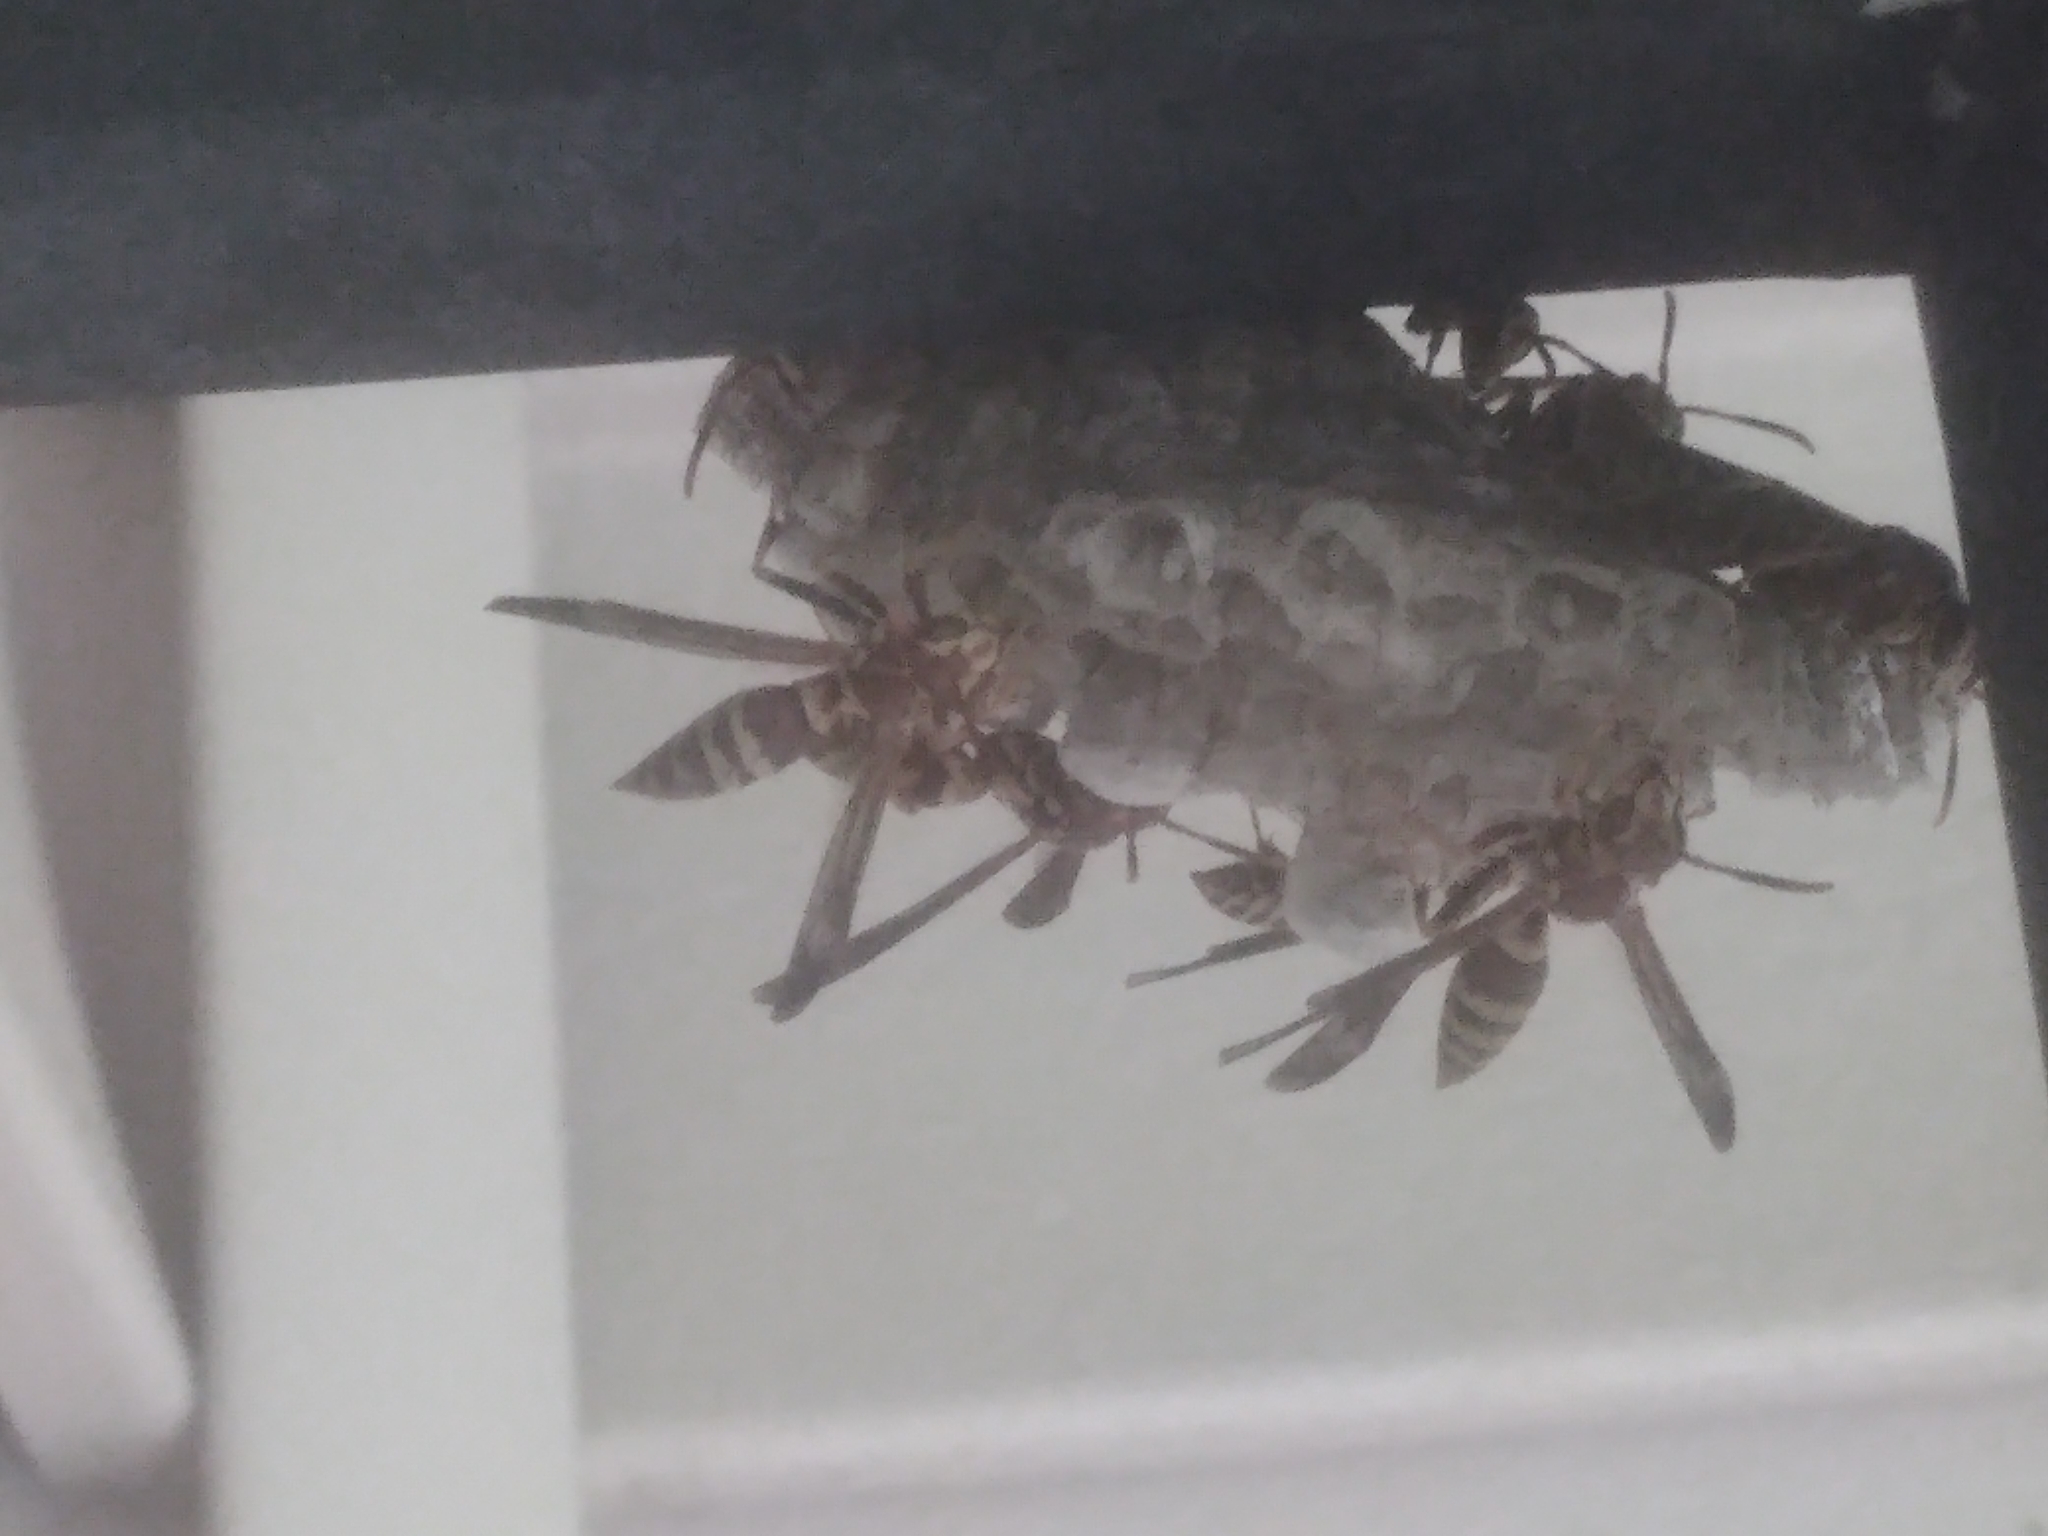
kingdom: Animalia
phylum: Arthropoda
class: Insecta
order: Hymenoptera
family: Eumenidae
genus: Polistes
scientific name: Polistes exclamans
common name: Paper wasp
